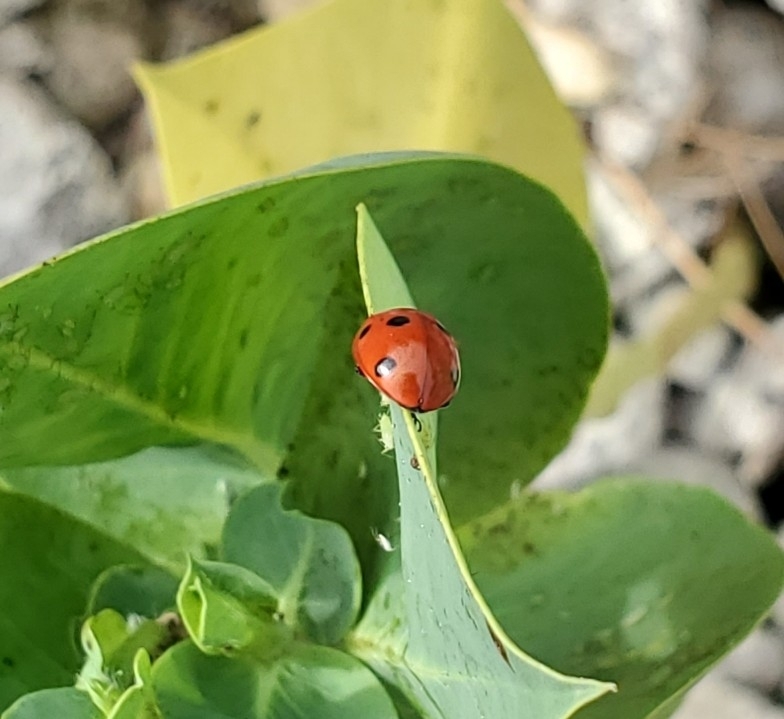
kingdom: Animalia
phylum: Arthropoda
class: Insecta
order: Coleoptera
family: Coccinellidae
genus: Coccinella
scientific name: Coccinella septempunctata
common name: Sevenspotted lady beetle
